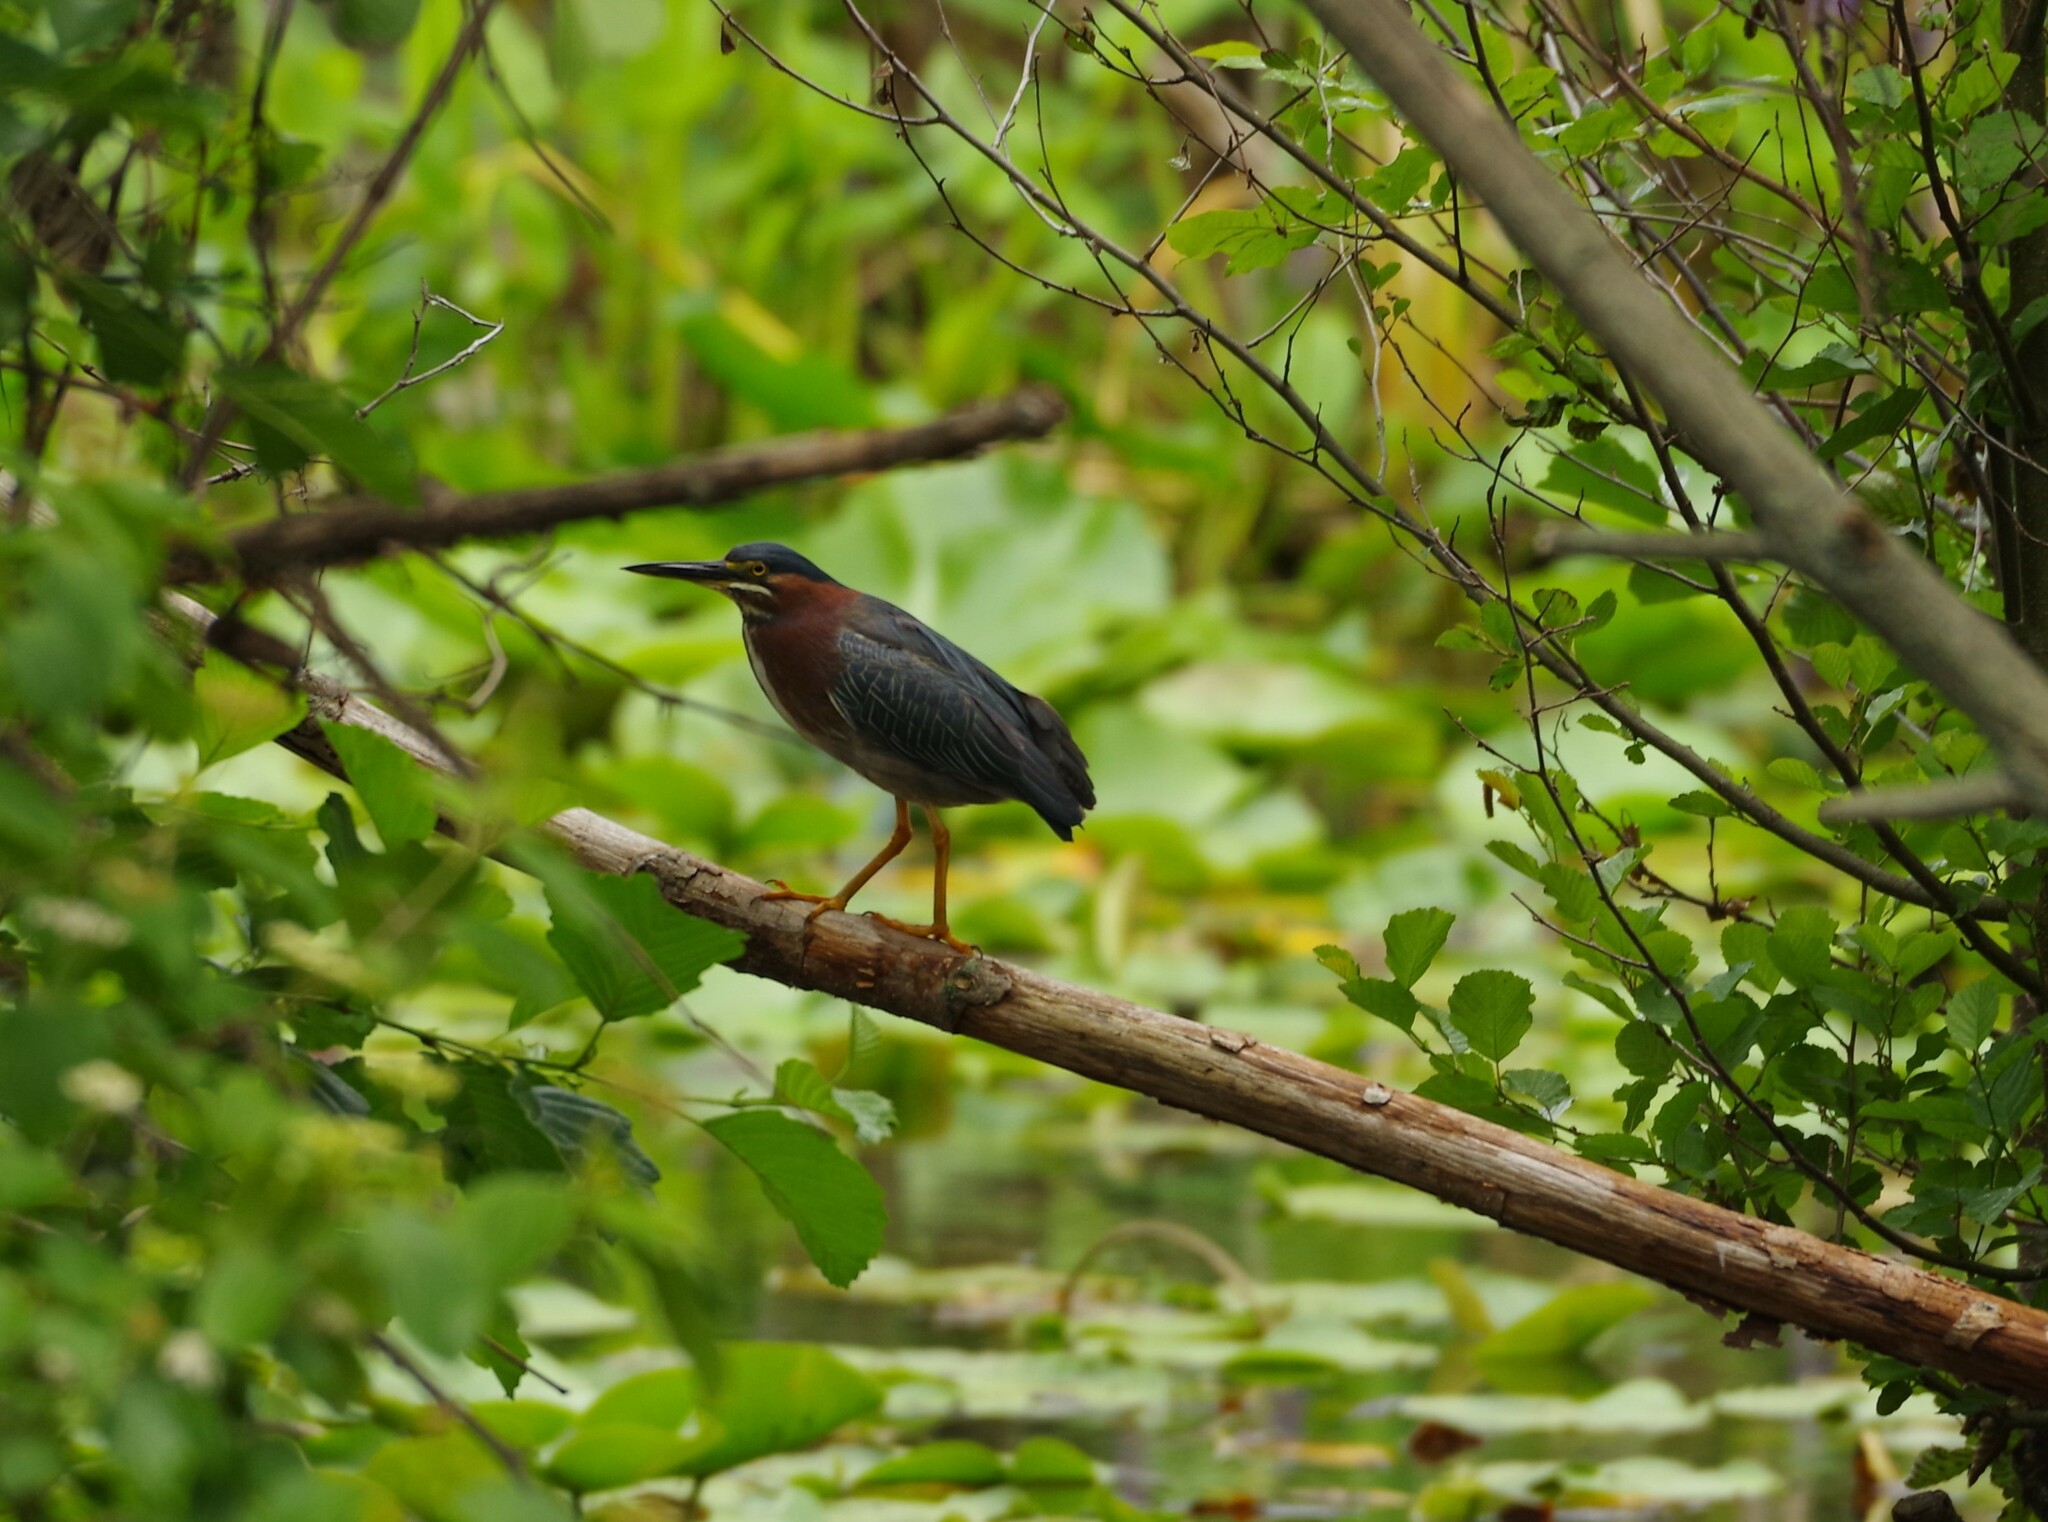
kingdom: Animalia
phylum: Chordata
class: Aves
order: Pelecaniformes
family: Ardeidae
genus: Butorides
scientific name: Butorides virescens
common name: Green heron
